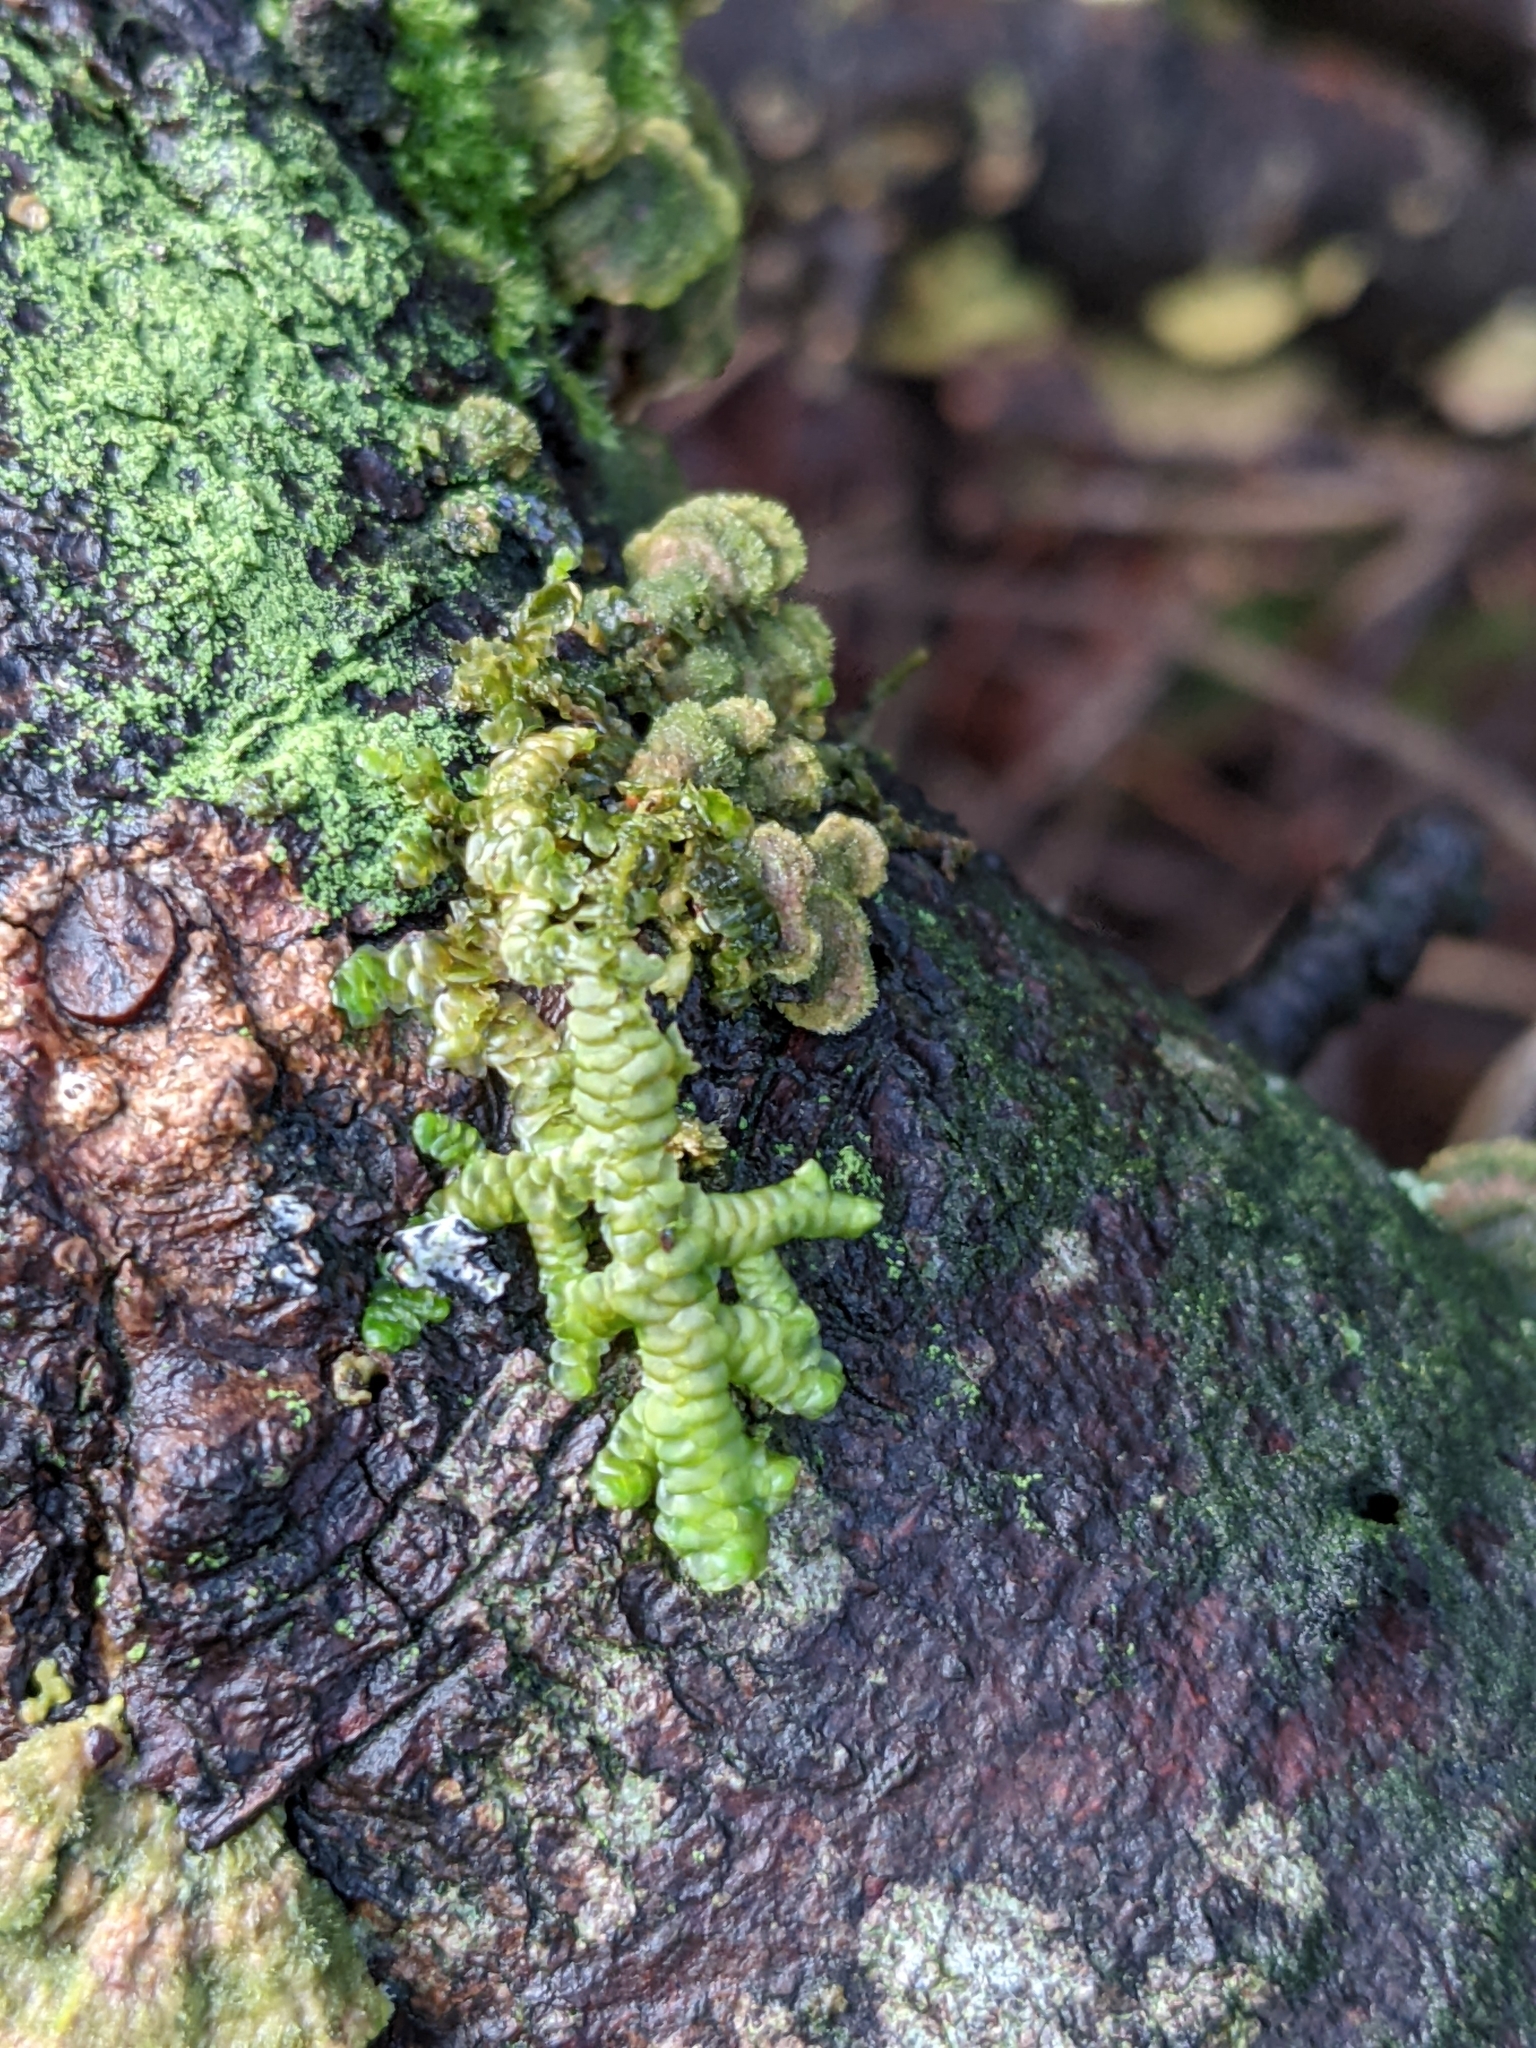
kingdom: Plantae
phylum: Marchantiophyta
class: Jungermanniopsida
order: Porellales
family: Porellaceae
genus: Porella
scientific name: Porella navicularis
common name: Tree ruffle liverwort
